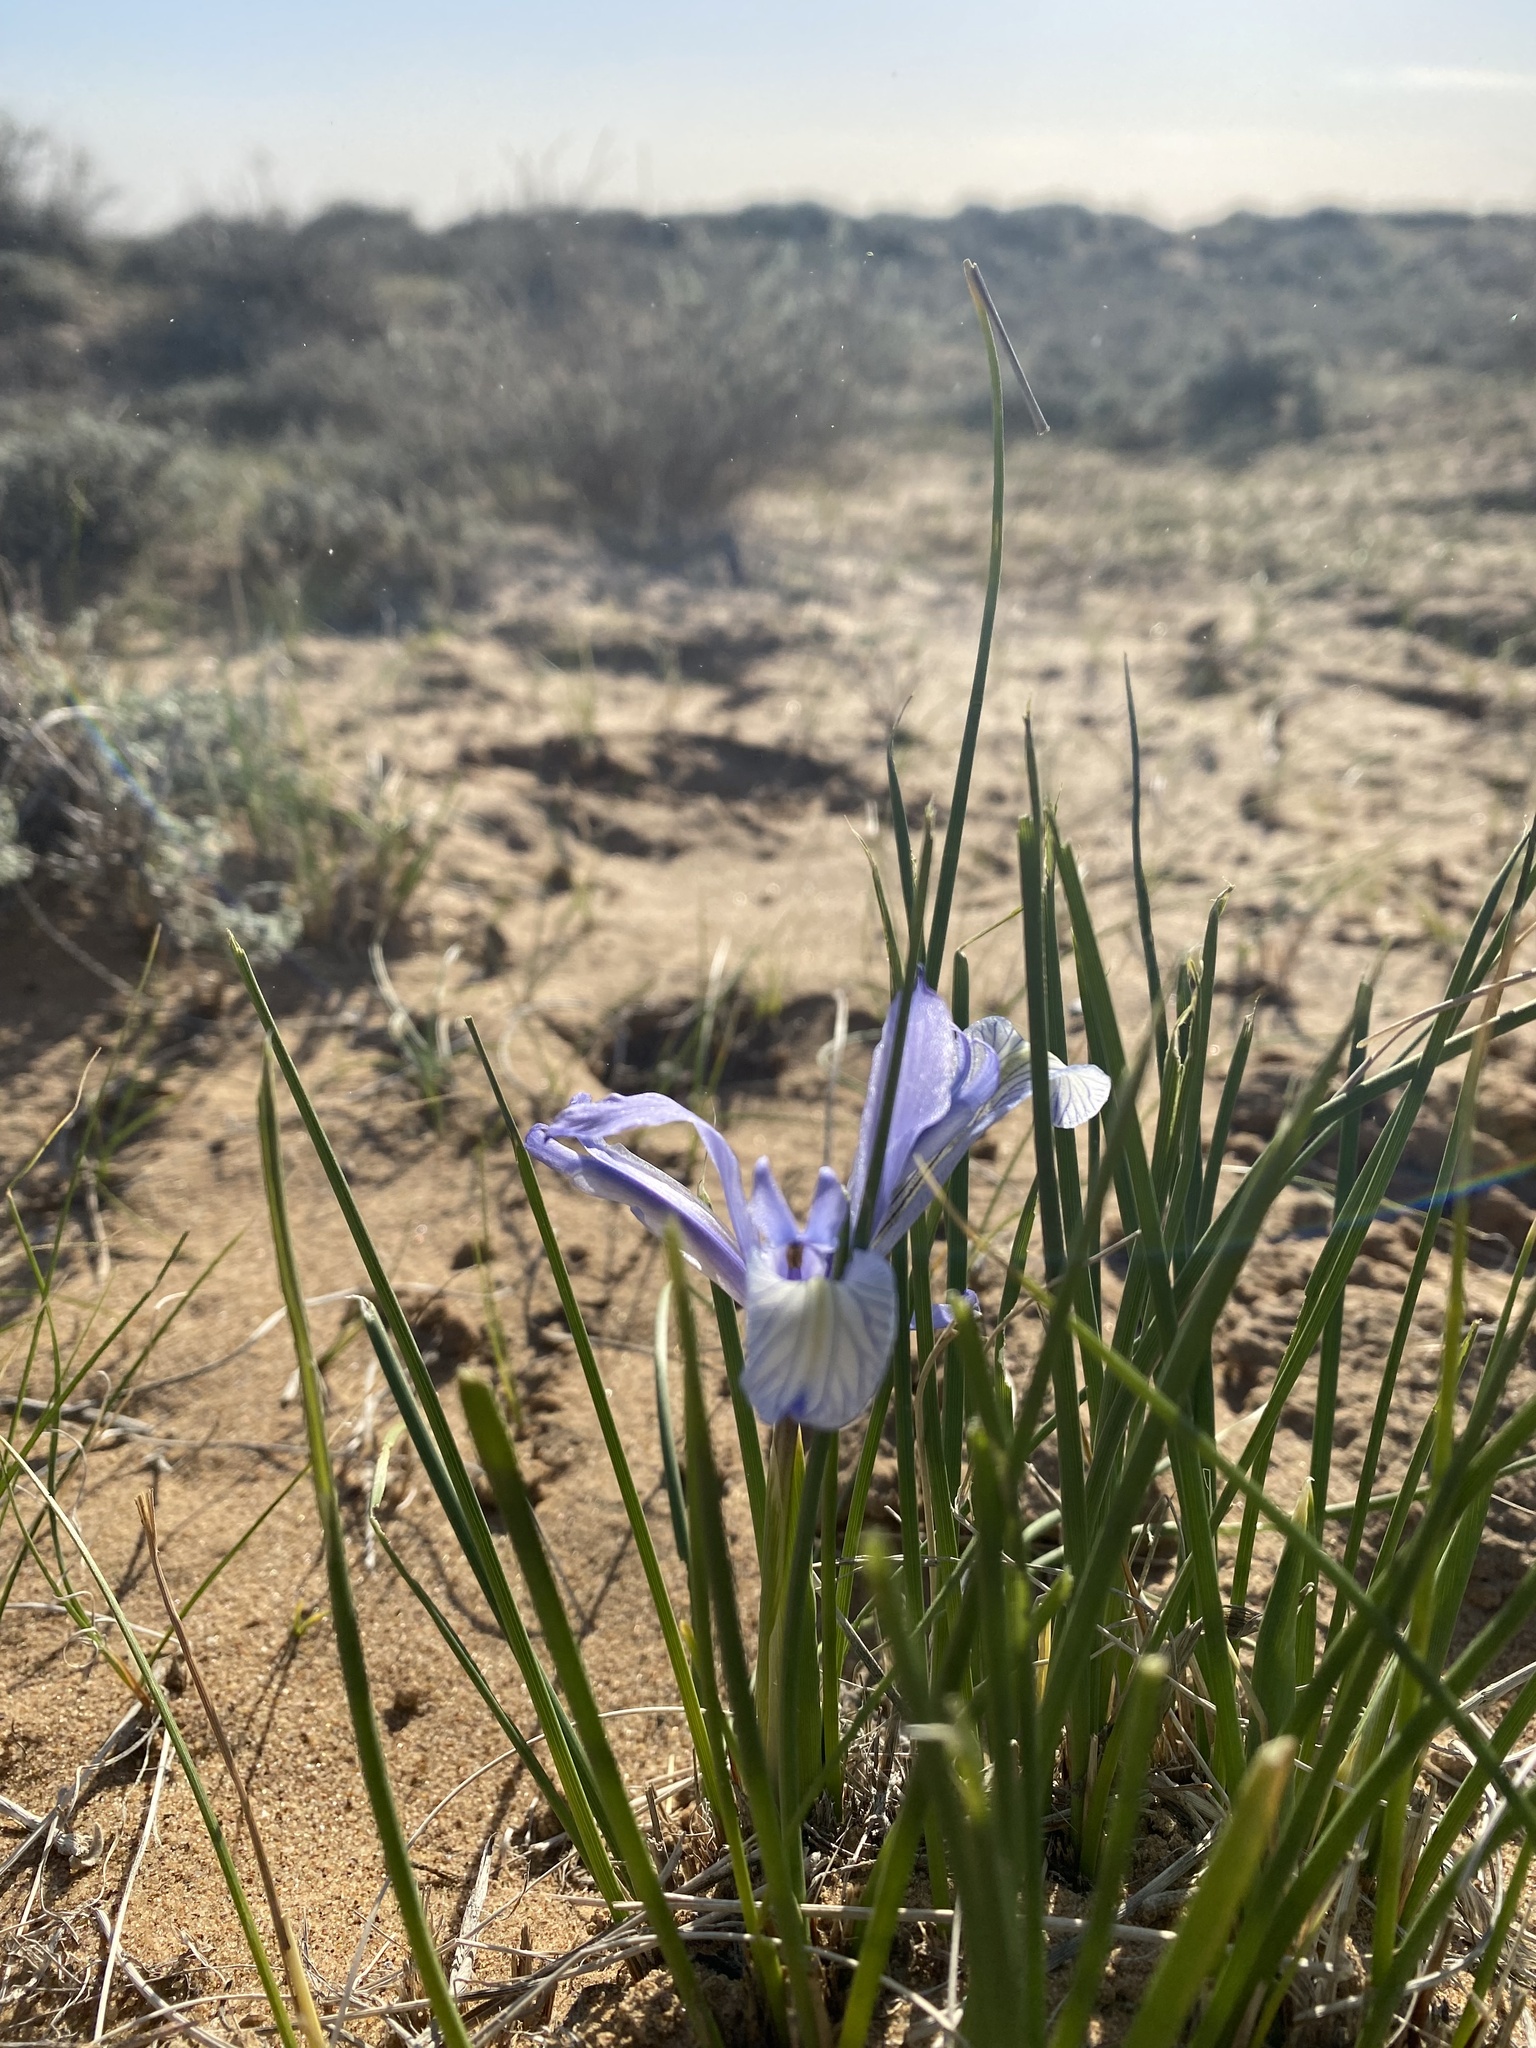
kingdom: Plantae
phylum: Tracheophyta
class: Liliopsida
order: Asparagales
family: Iridaceae
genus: Iris
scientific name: Iris tenuifolia
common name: Slender-leaf iris
